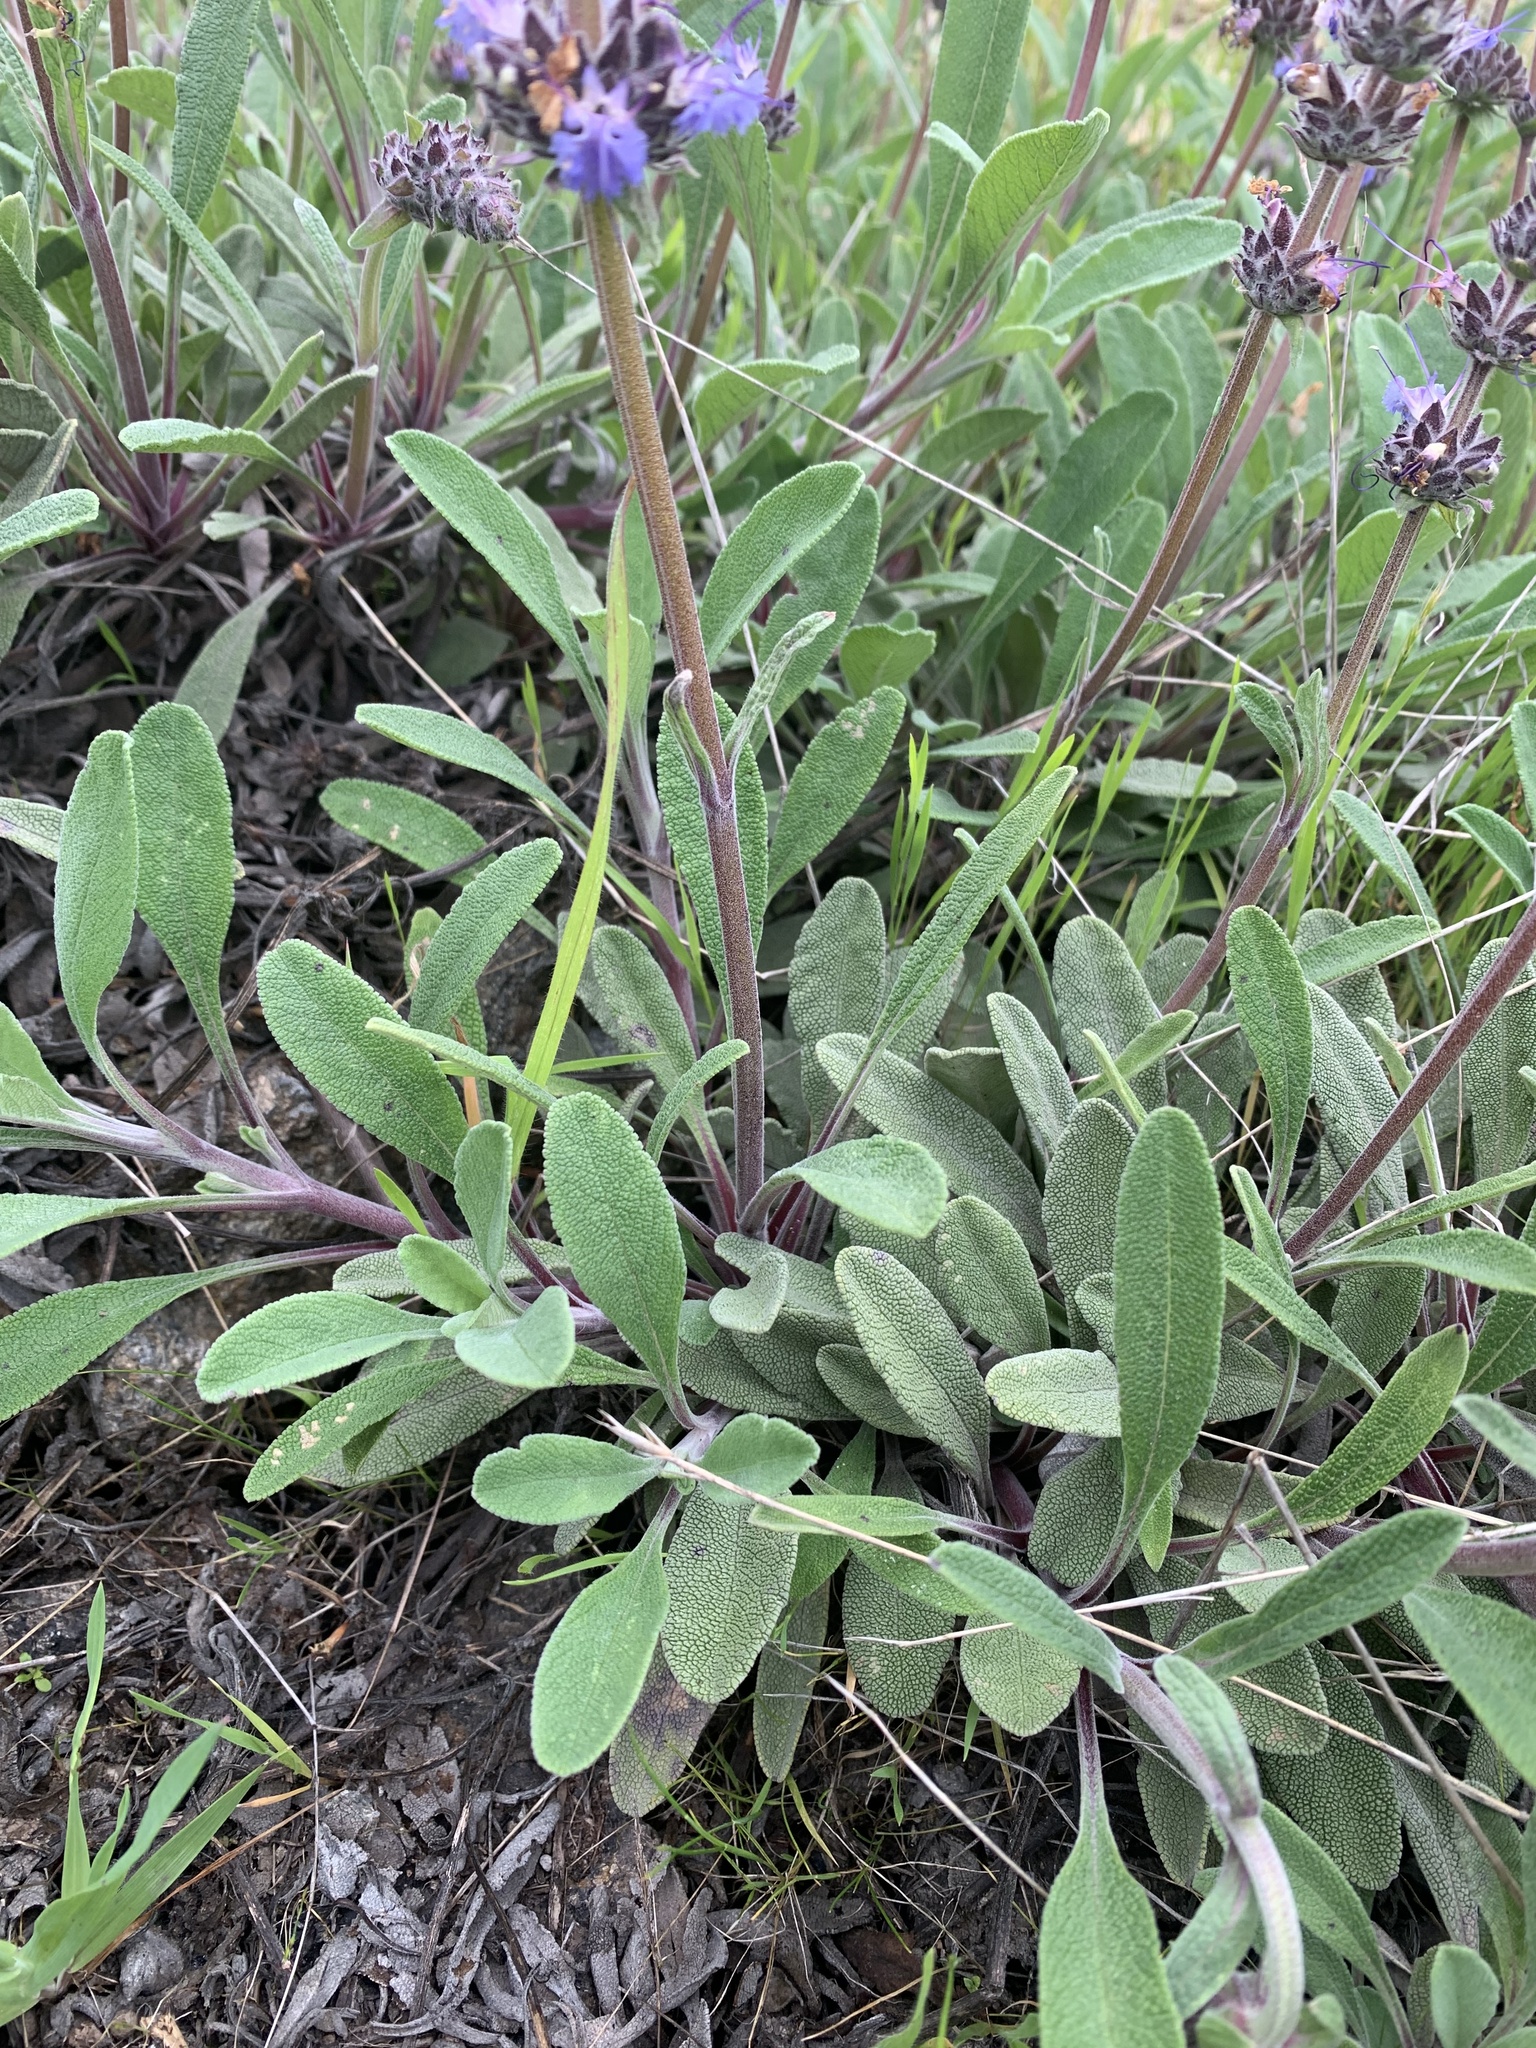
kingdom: Plantae
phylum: Tracheophyta
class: Magnoliopsida
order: Lamiales
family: Lamiaceae
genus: Salvia
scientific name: Salvia sonomensis
